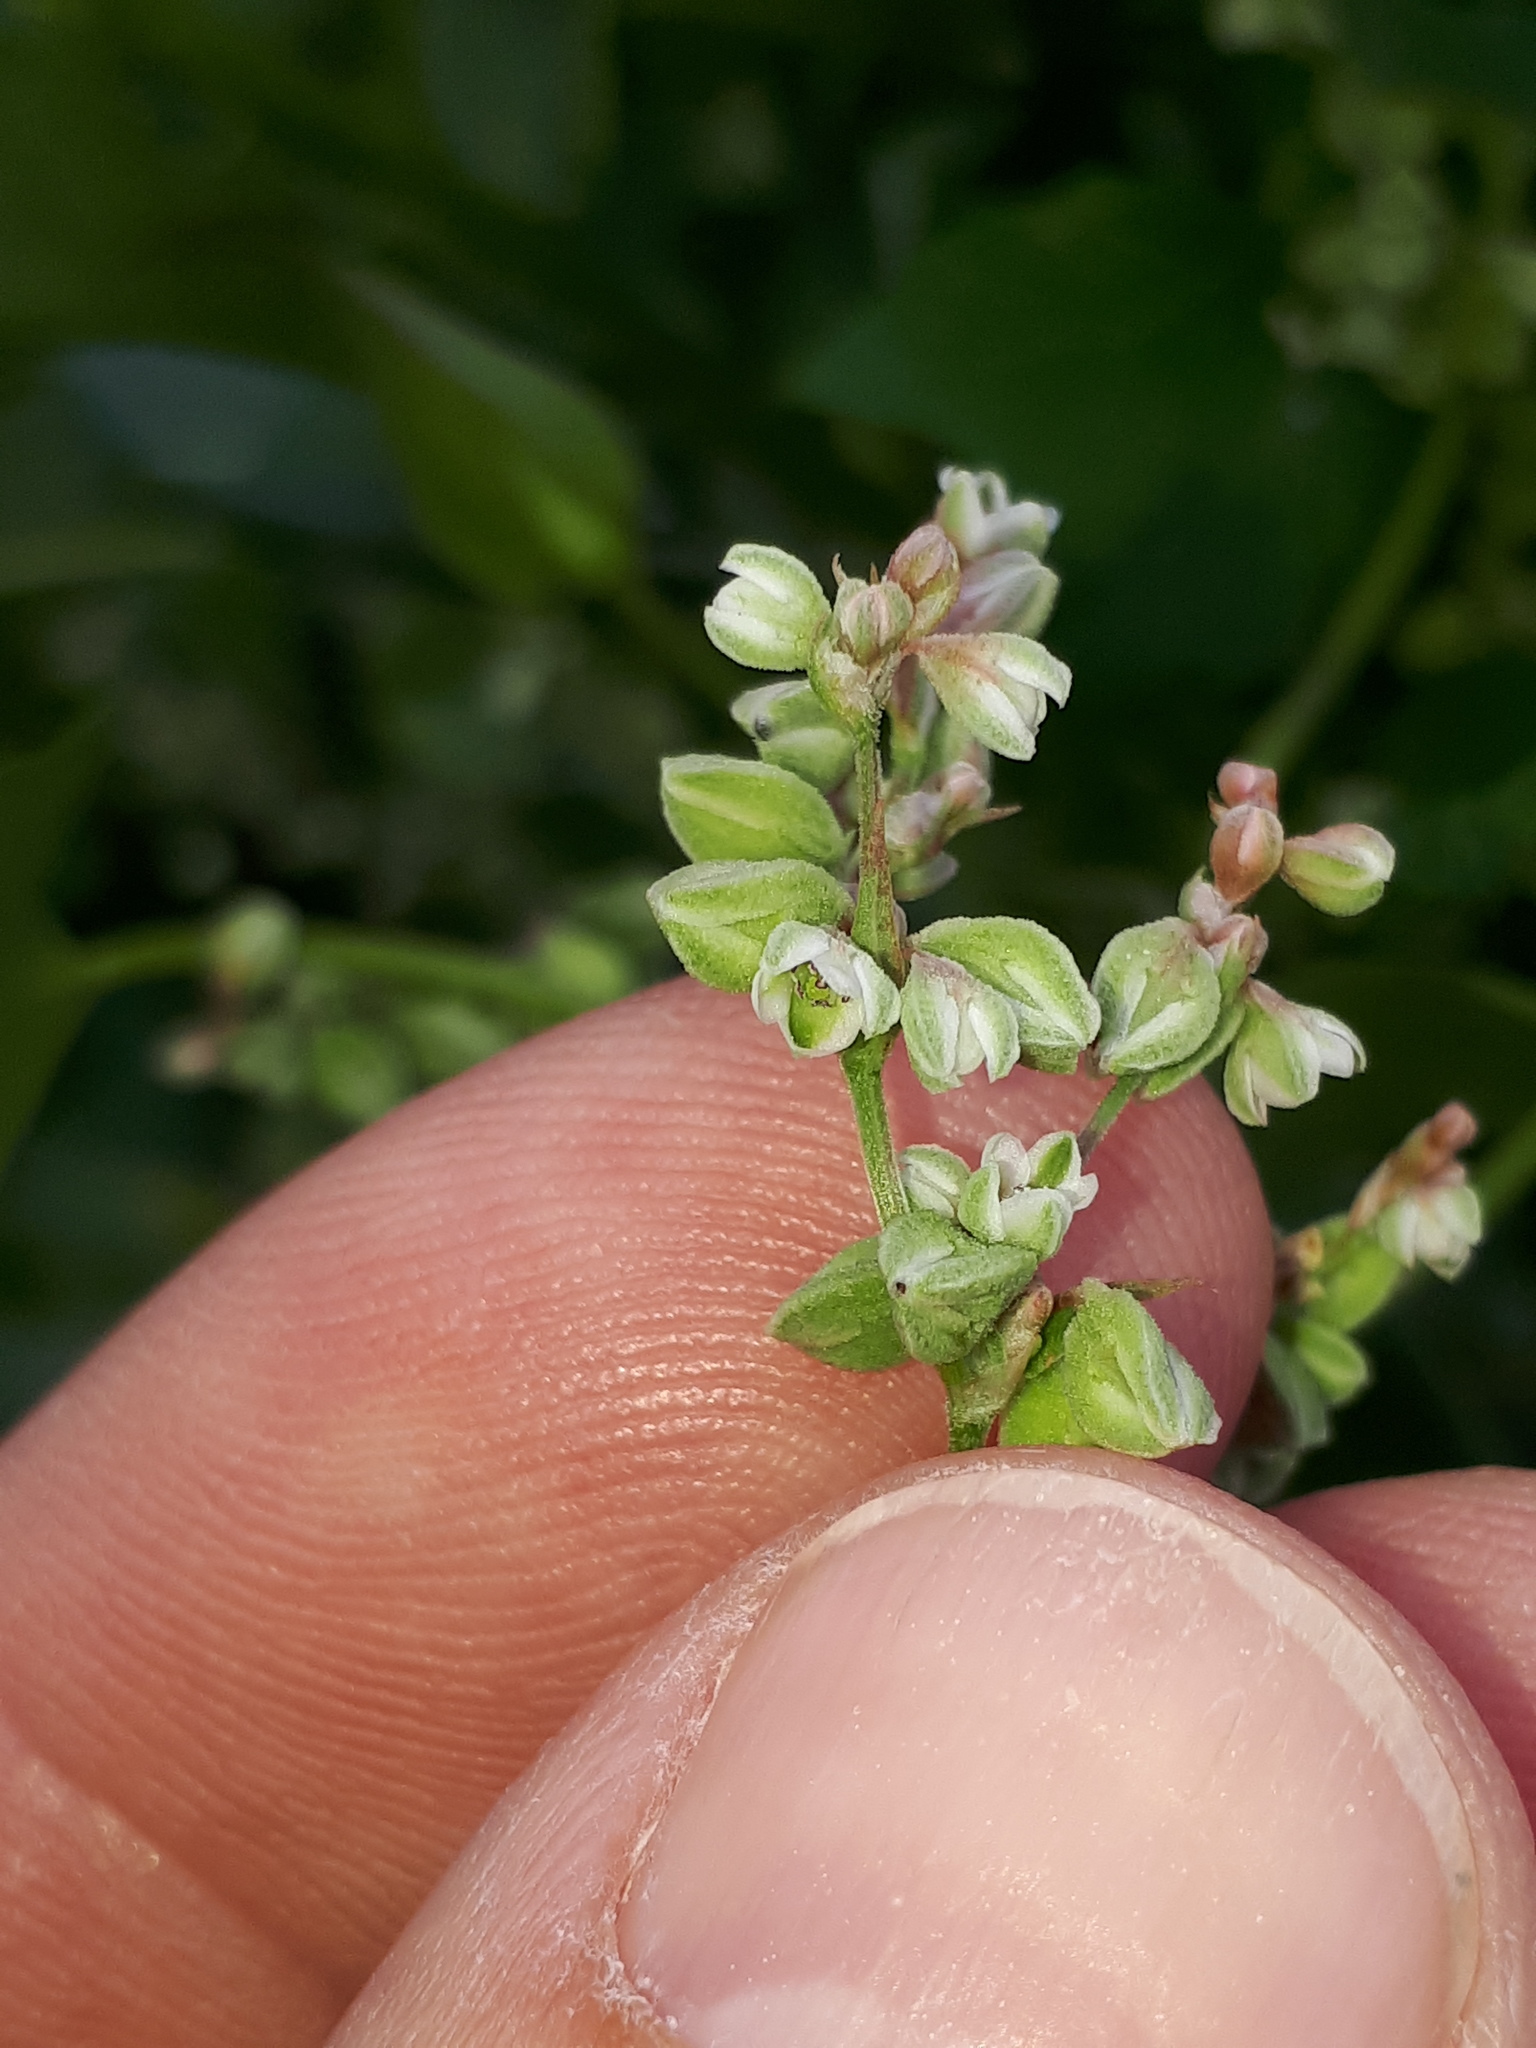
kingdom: Plantae
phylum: Tracheophyta
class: Magnoliopsida
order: Caryophyllales
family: Polygonaceae
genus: Fallopia
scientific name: Fallopia convolvulus
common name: Black bindweed
